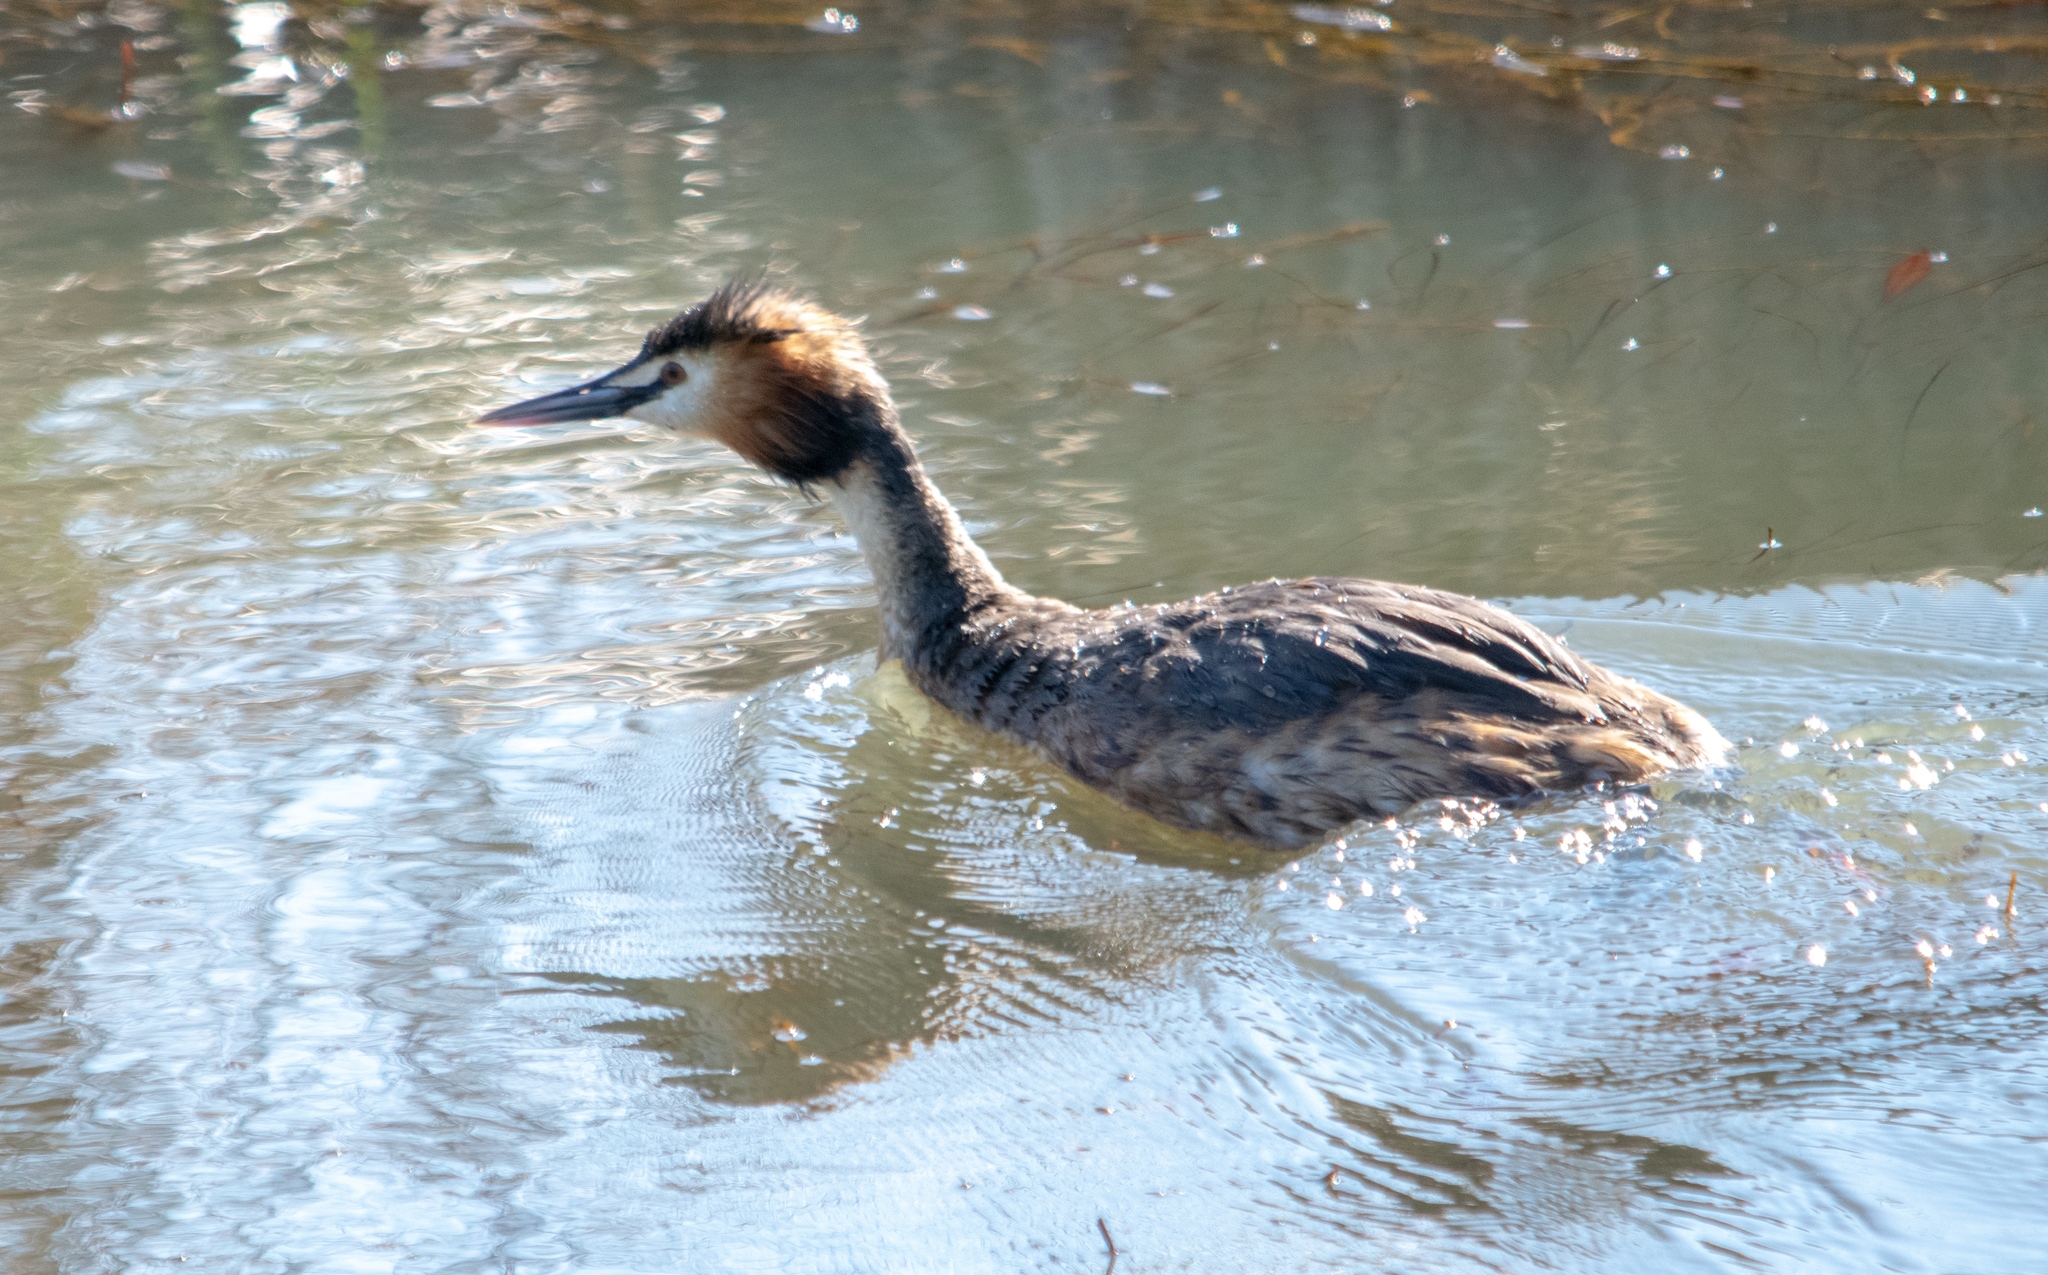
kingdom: Animalia
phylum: Chordata
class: Aves
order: Podicipediformes
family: Podicipedidae
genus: Podiceps
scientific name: Podiceps cristatus
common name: Great crested grebe
